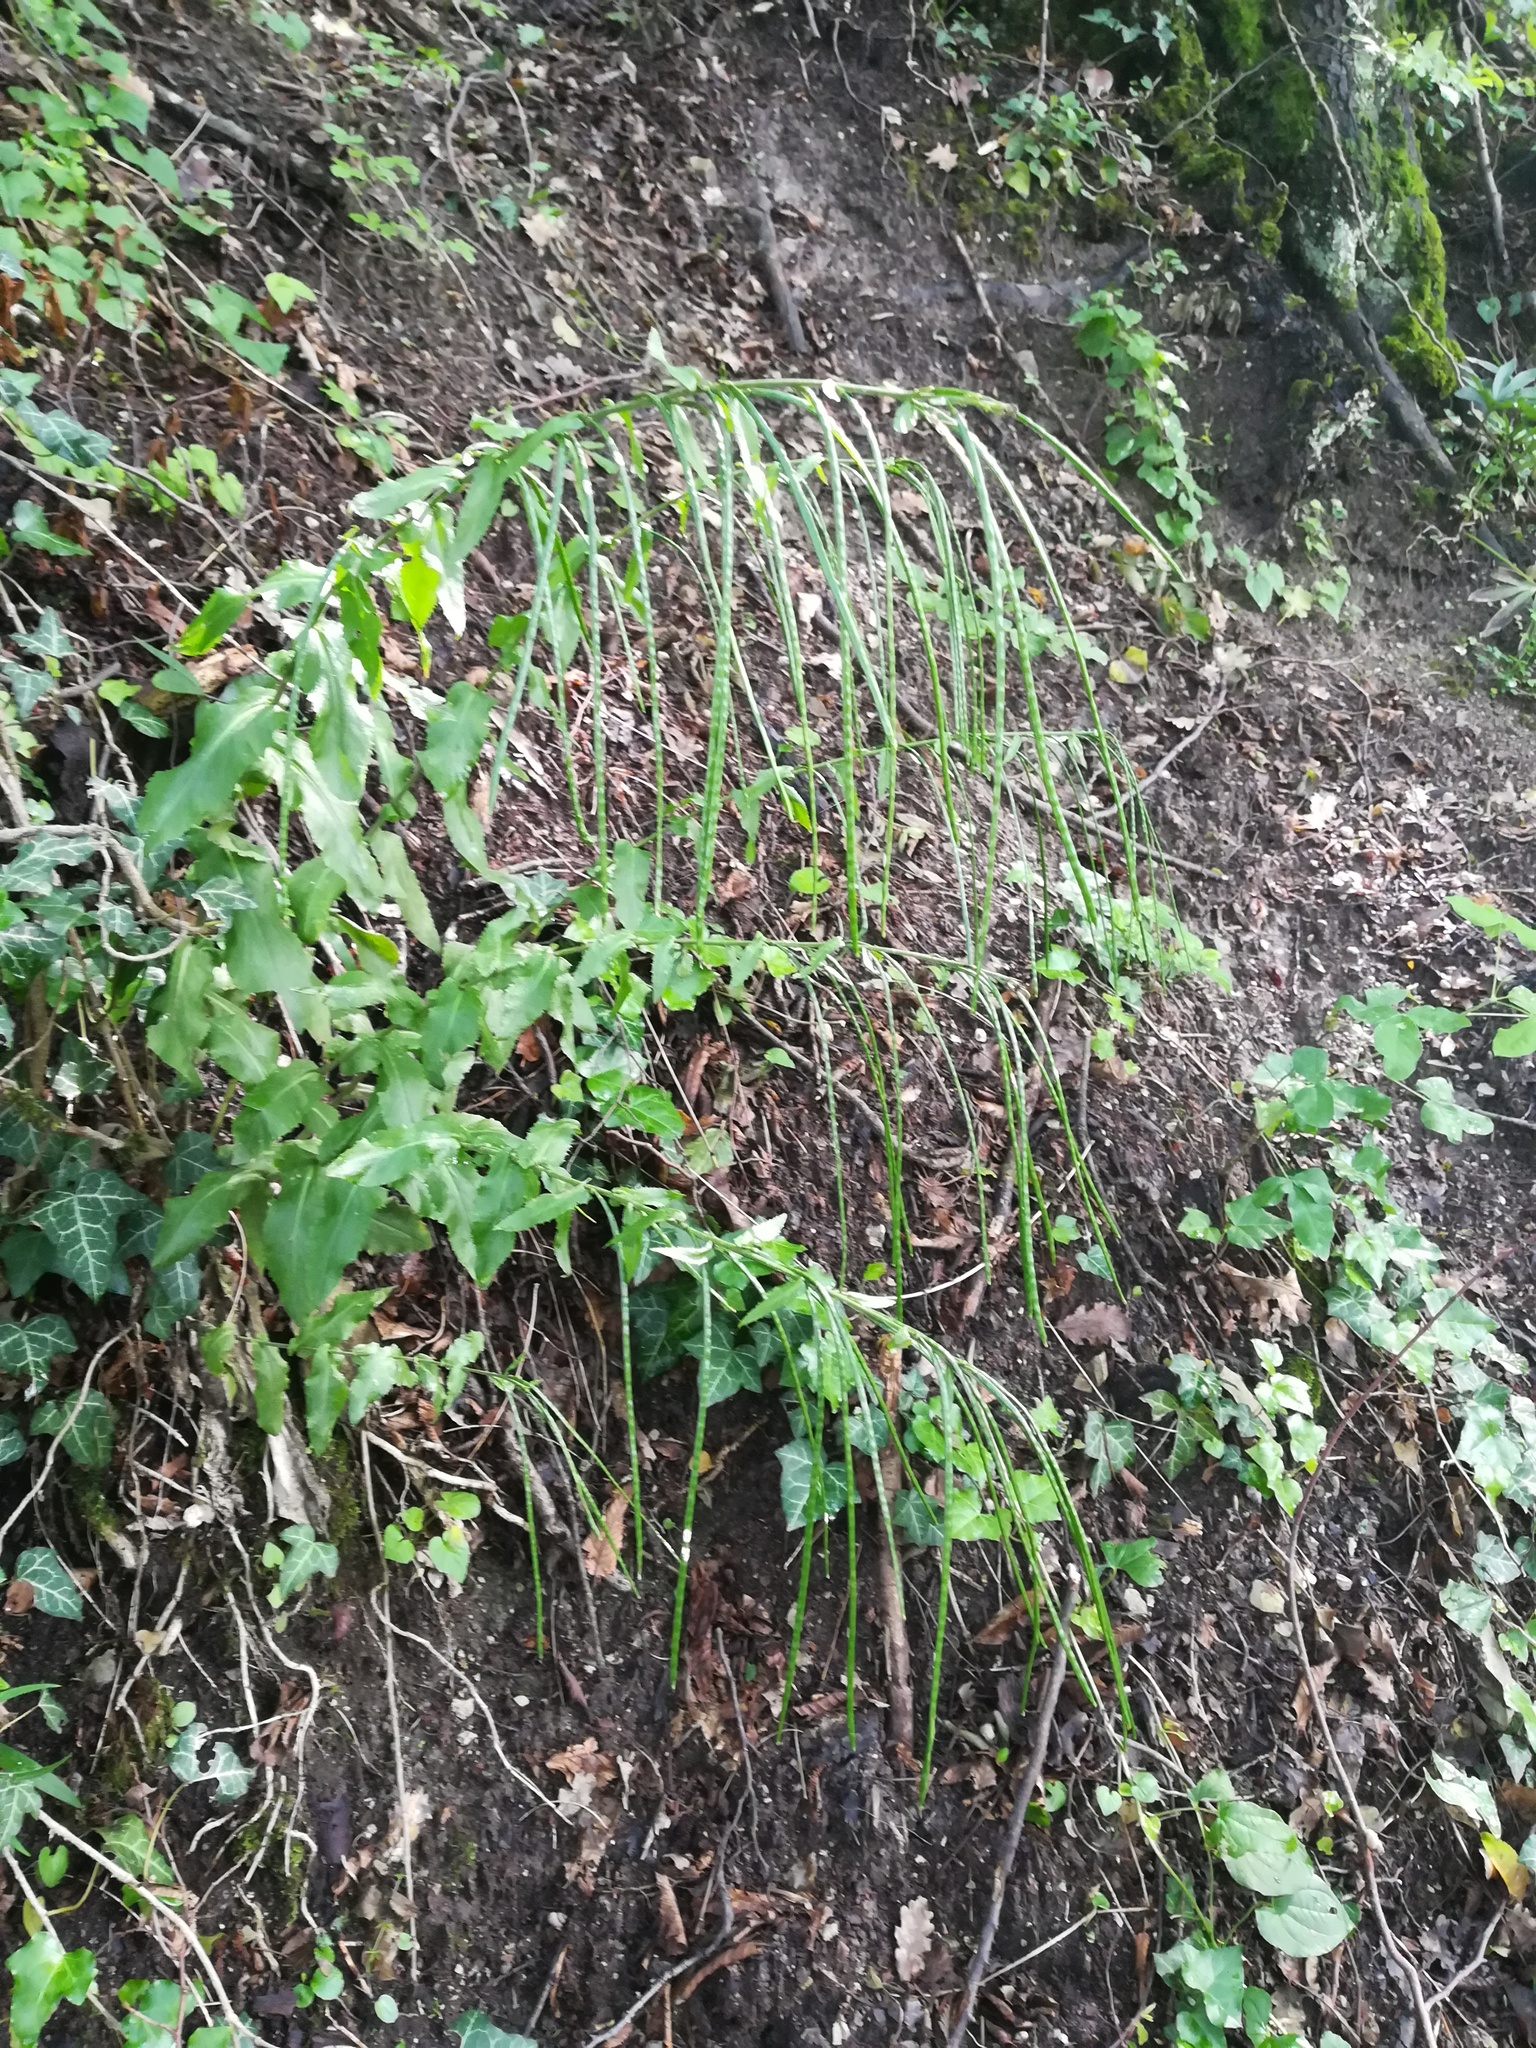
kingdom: Plantae
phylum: Tracheophyta
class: Magnoliopsida
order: Brassicales
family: Brassicaceae
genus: Pseudoturritis
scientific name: Pseudoturritis turrita
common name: Tower cress
